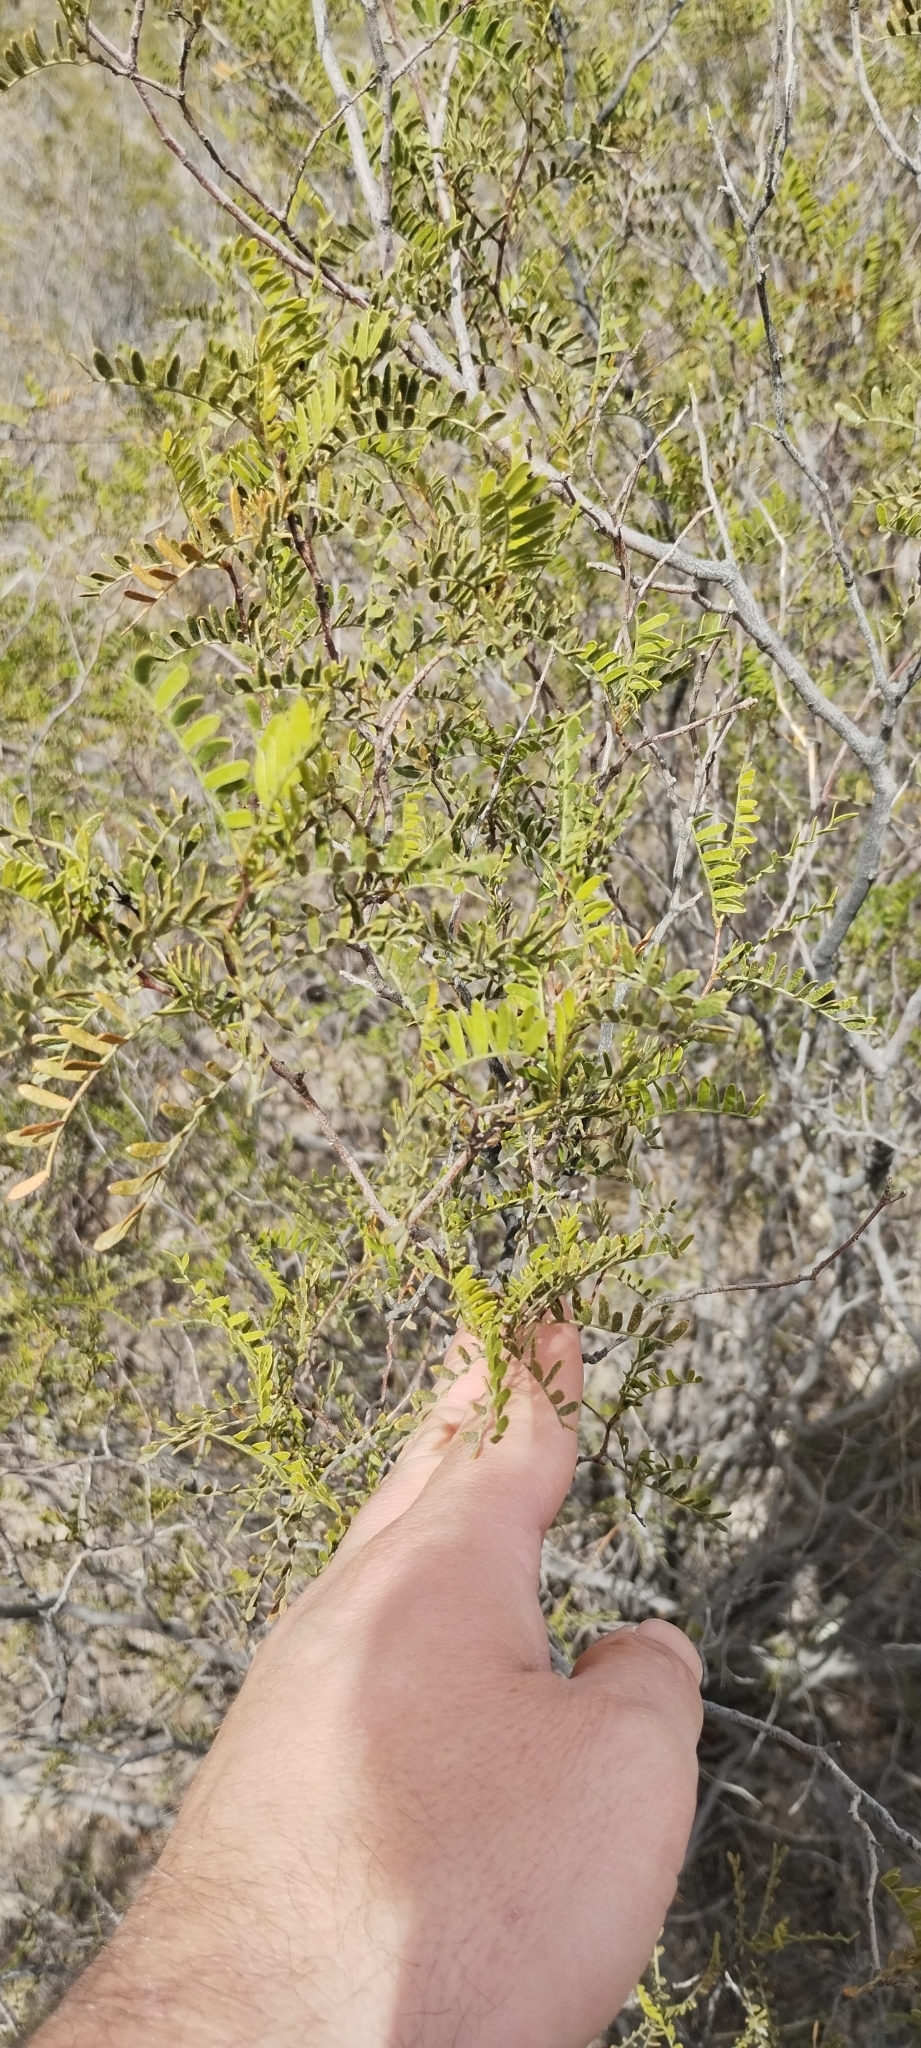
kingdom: Plantae
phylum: Tracheophyta
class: Magnoliopsida
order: Fabales
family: Fabaceae
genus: Zuccagnia
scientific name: Zuccagnia punctata
